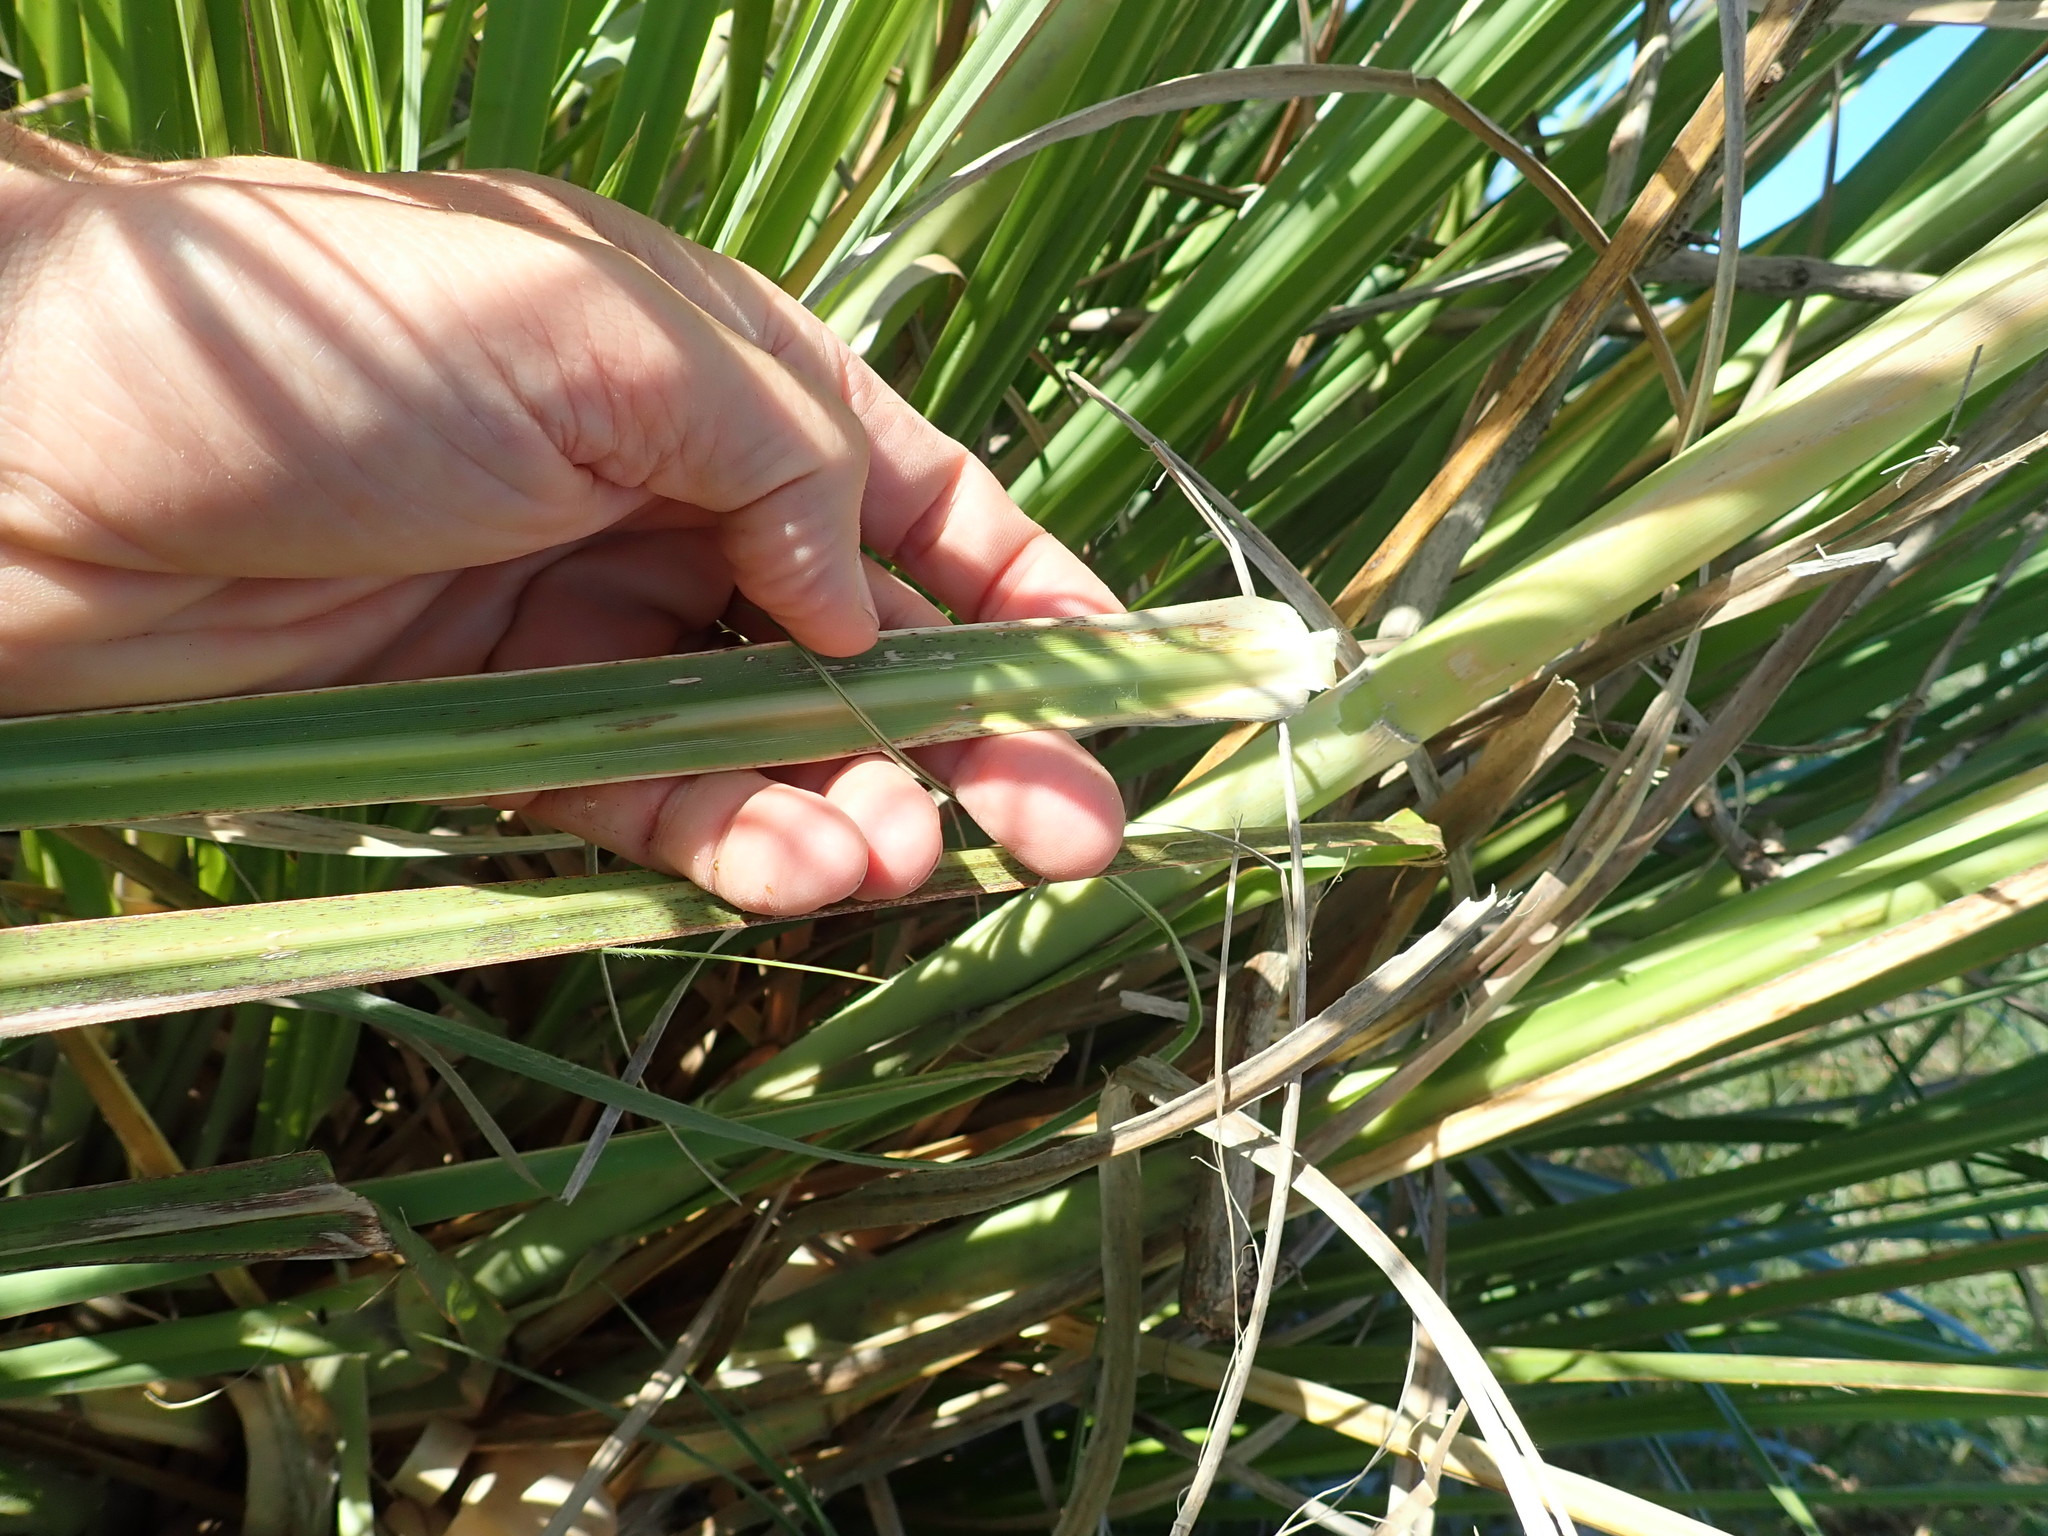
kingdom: Plantae
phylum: Tracheophyta
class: Liliopsida
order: Poales
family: Poaceae
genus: Cortaderia
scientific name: Cortaderia selloana
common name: Uruguayan pampas grass
